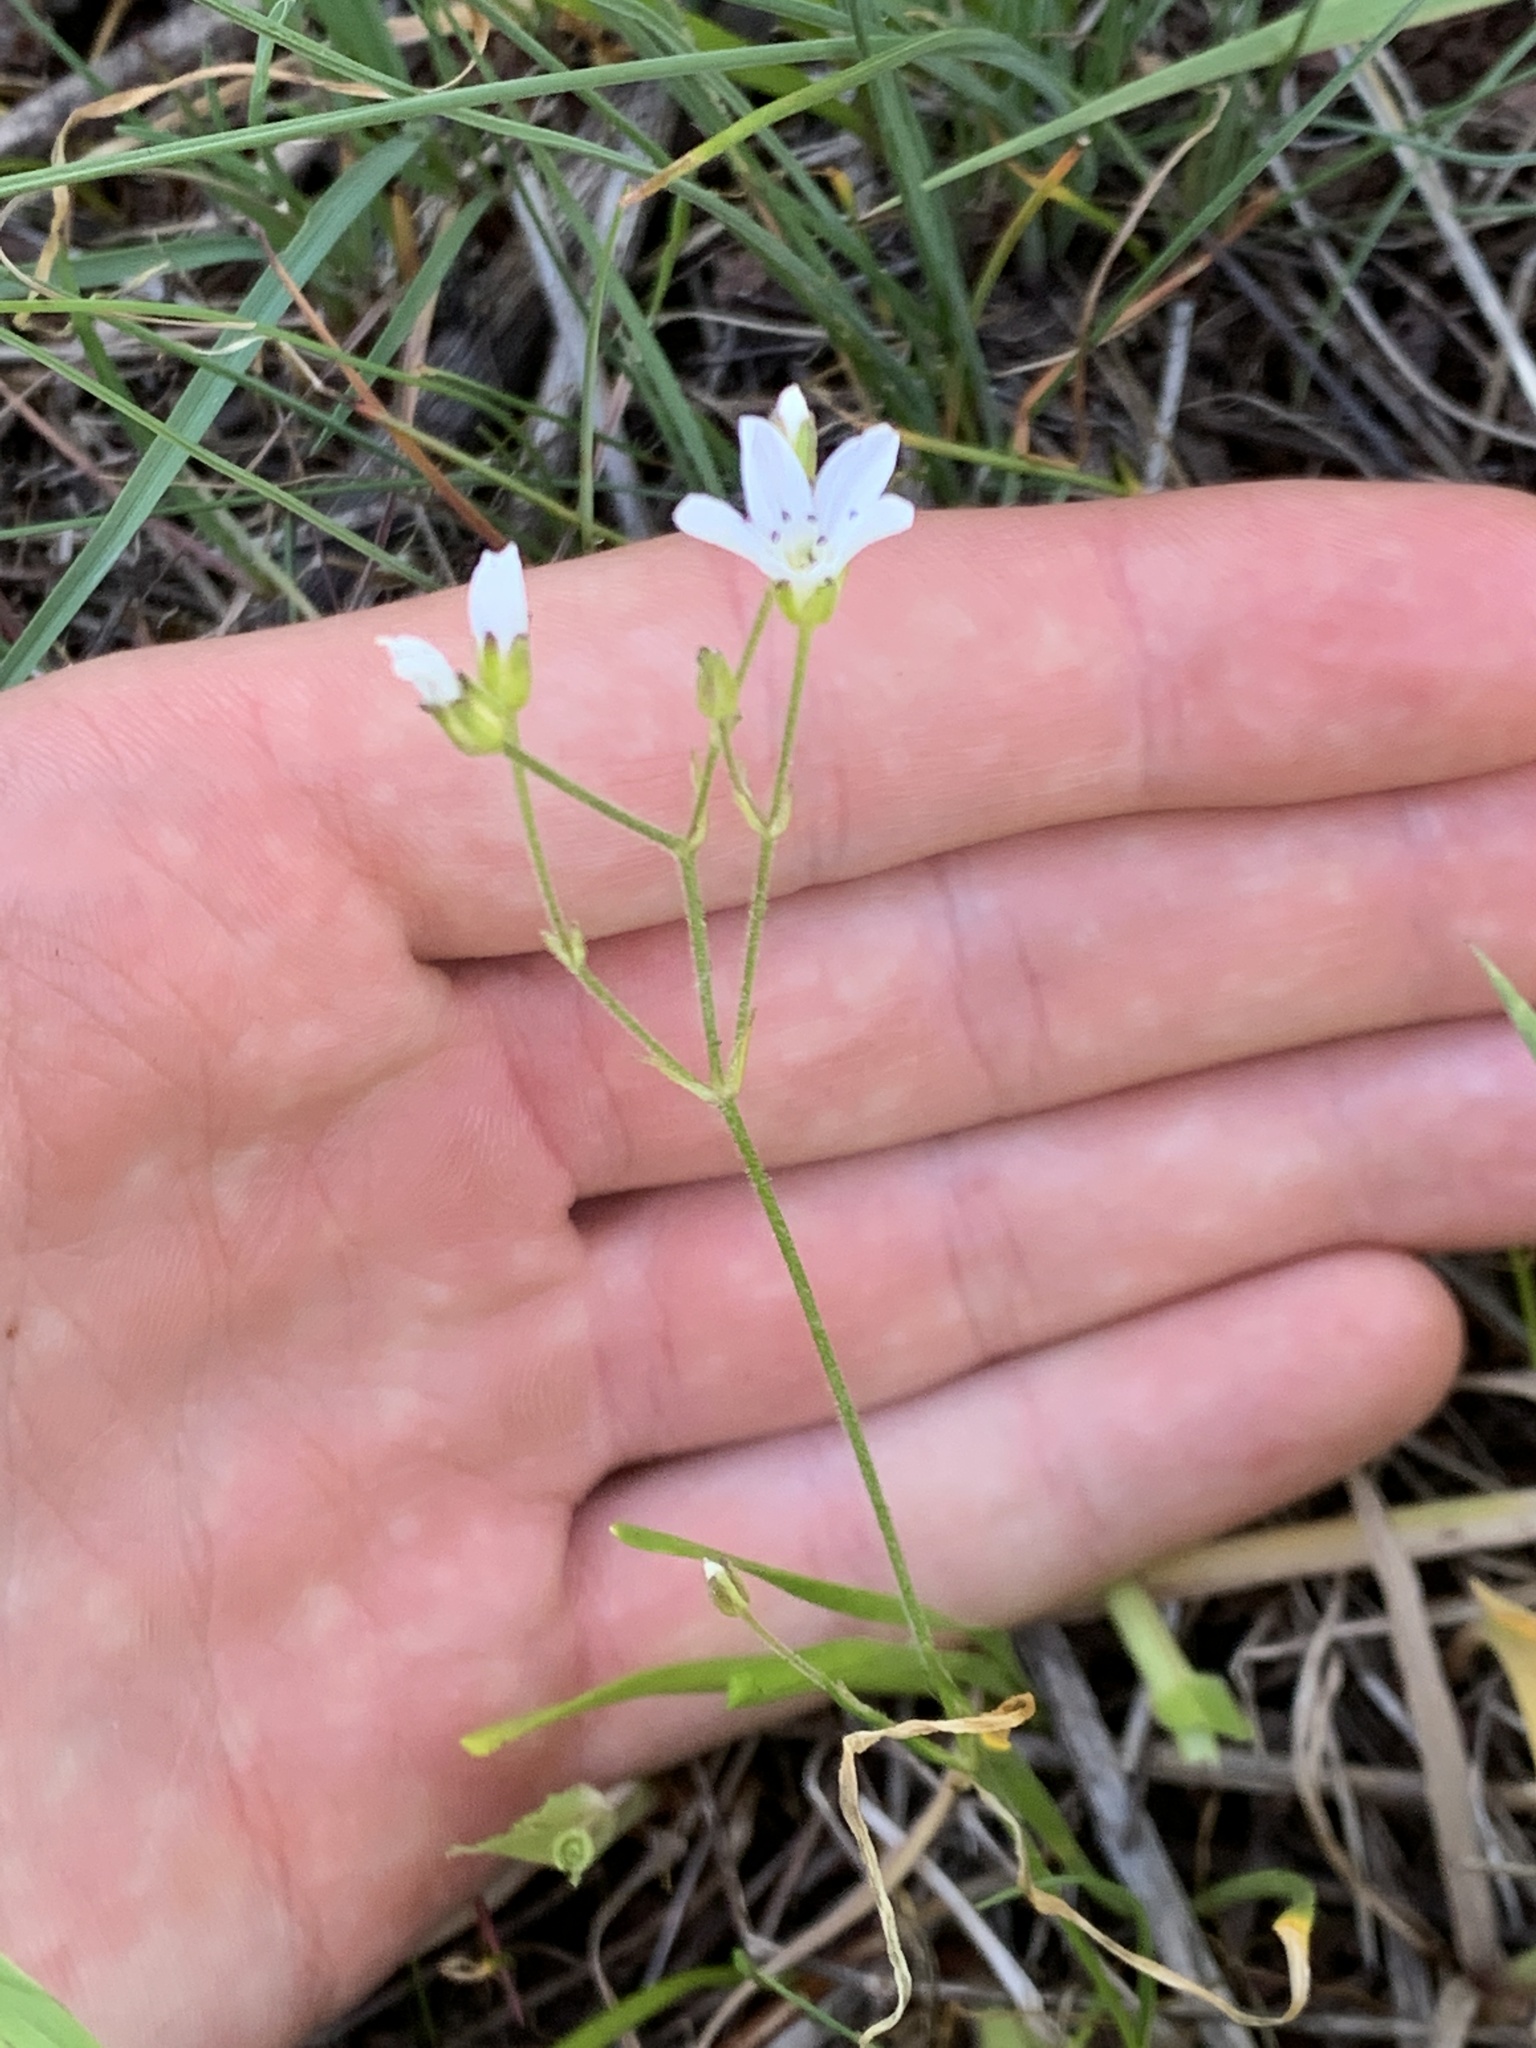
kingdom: Plantae
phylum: Tracheophyta
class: Magnoliopsida
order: Caryophyllales
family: Caryophyllaceae
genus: Eremogone
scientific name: Eremogone capillaris
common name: Slender mountain sandwort
